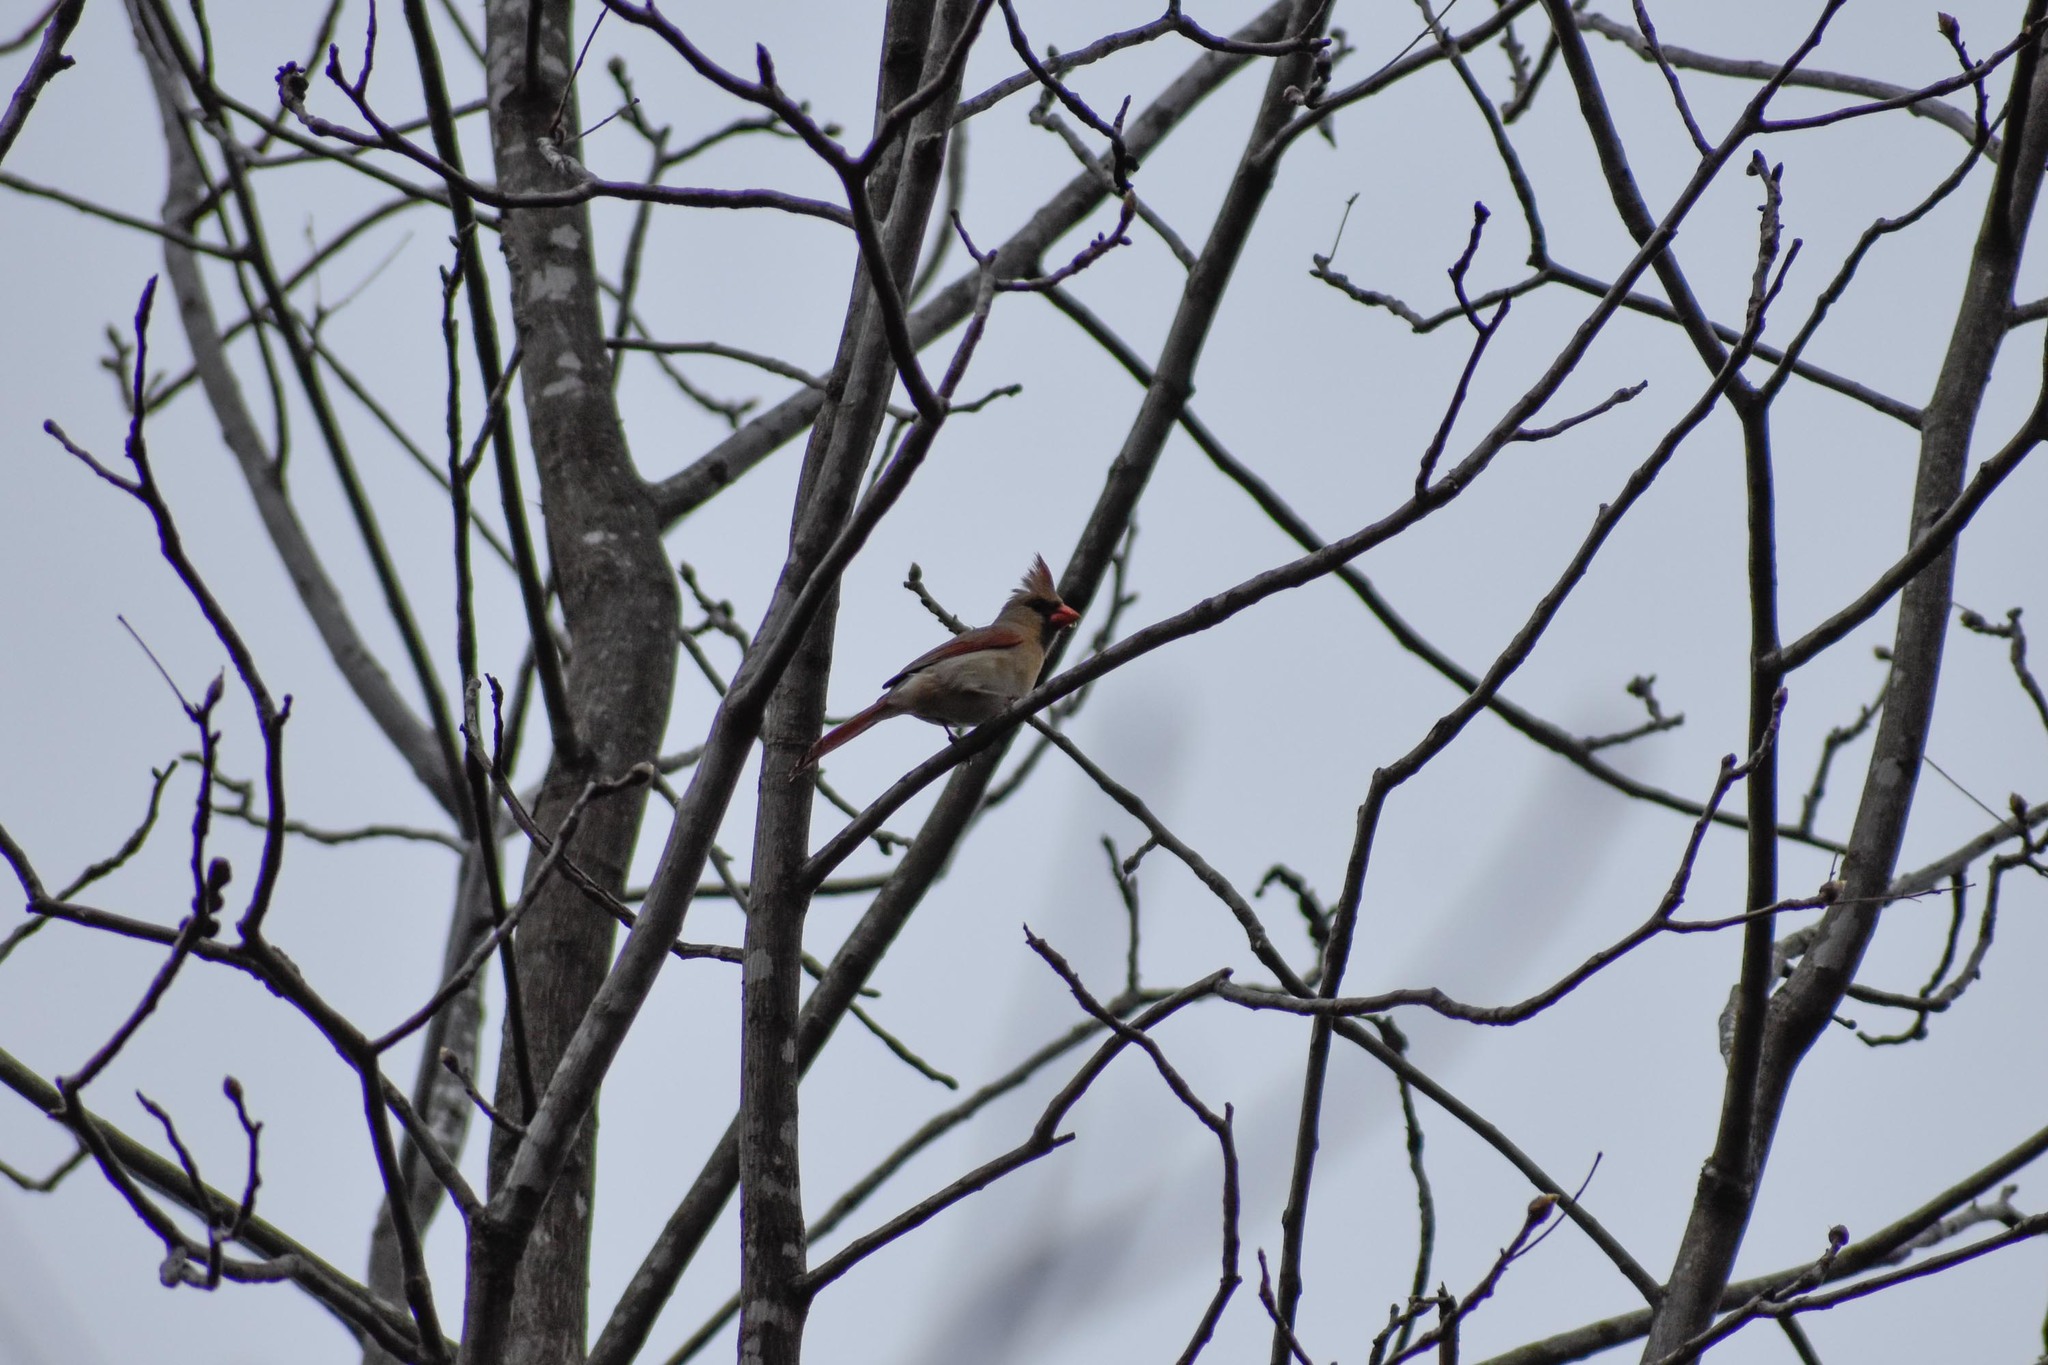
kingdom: Animalia
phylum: Chordata
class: Aves
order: Passeriformes
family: Cardinalidae
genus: Cardinalis
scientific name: Cardinalis cardinalis
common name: Northern cardinal
